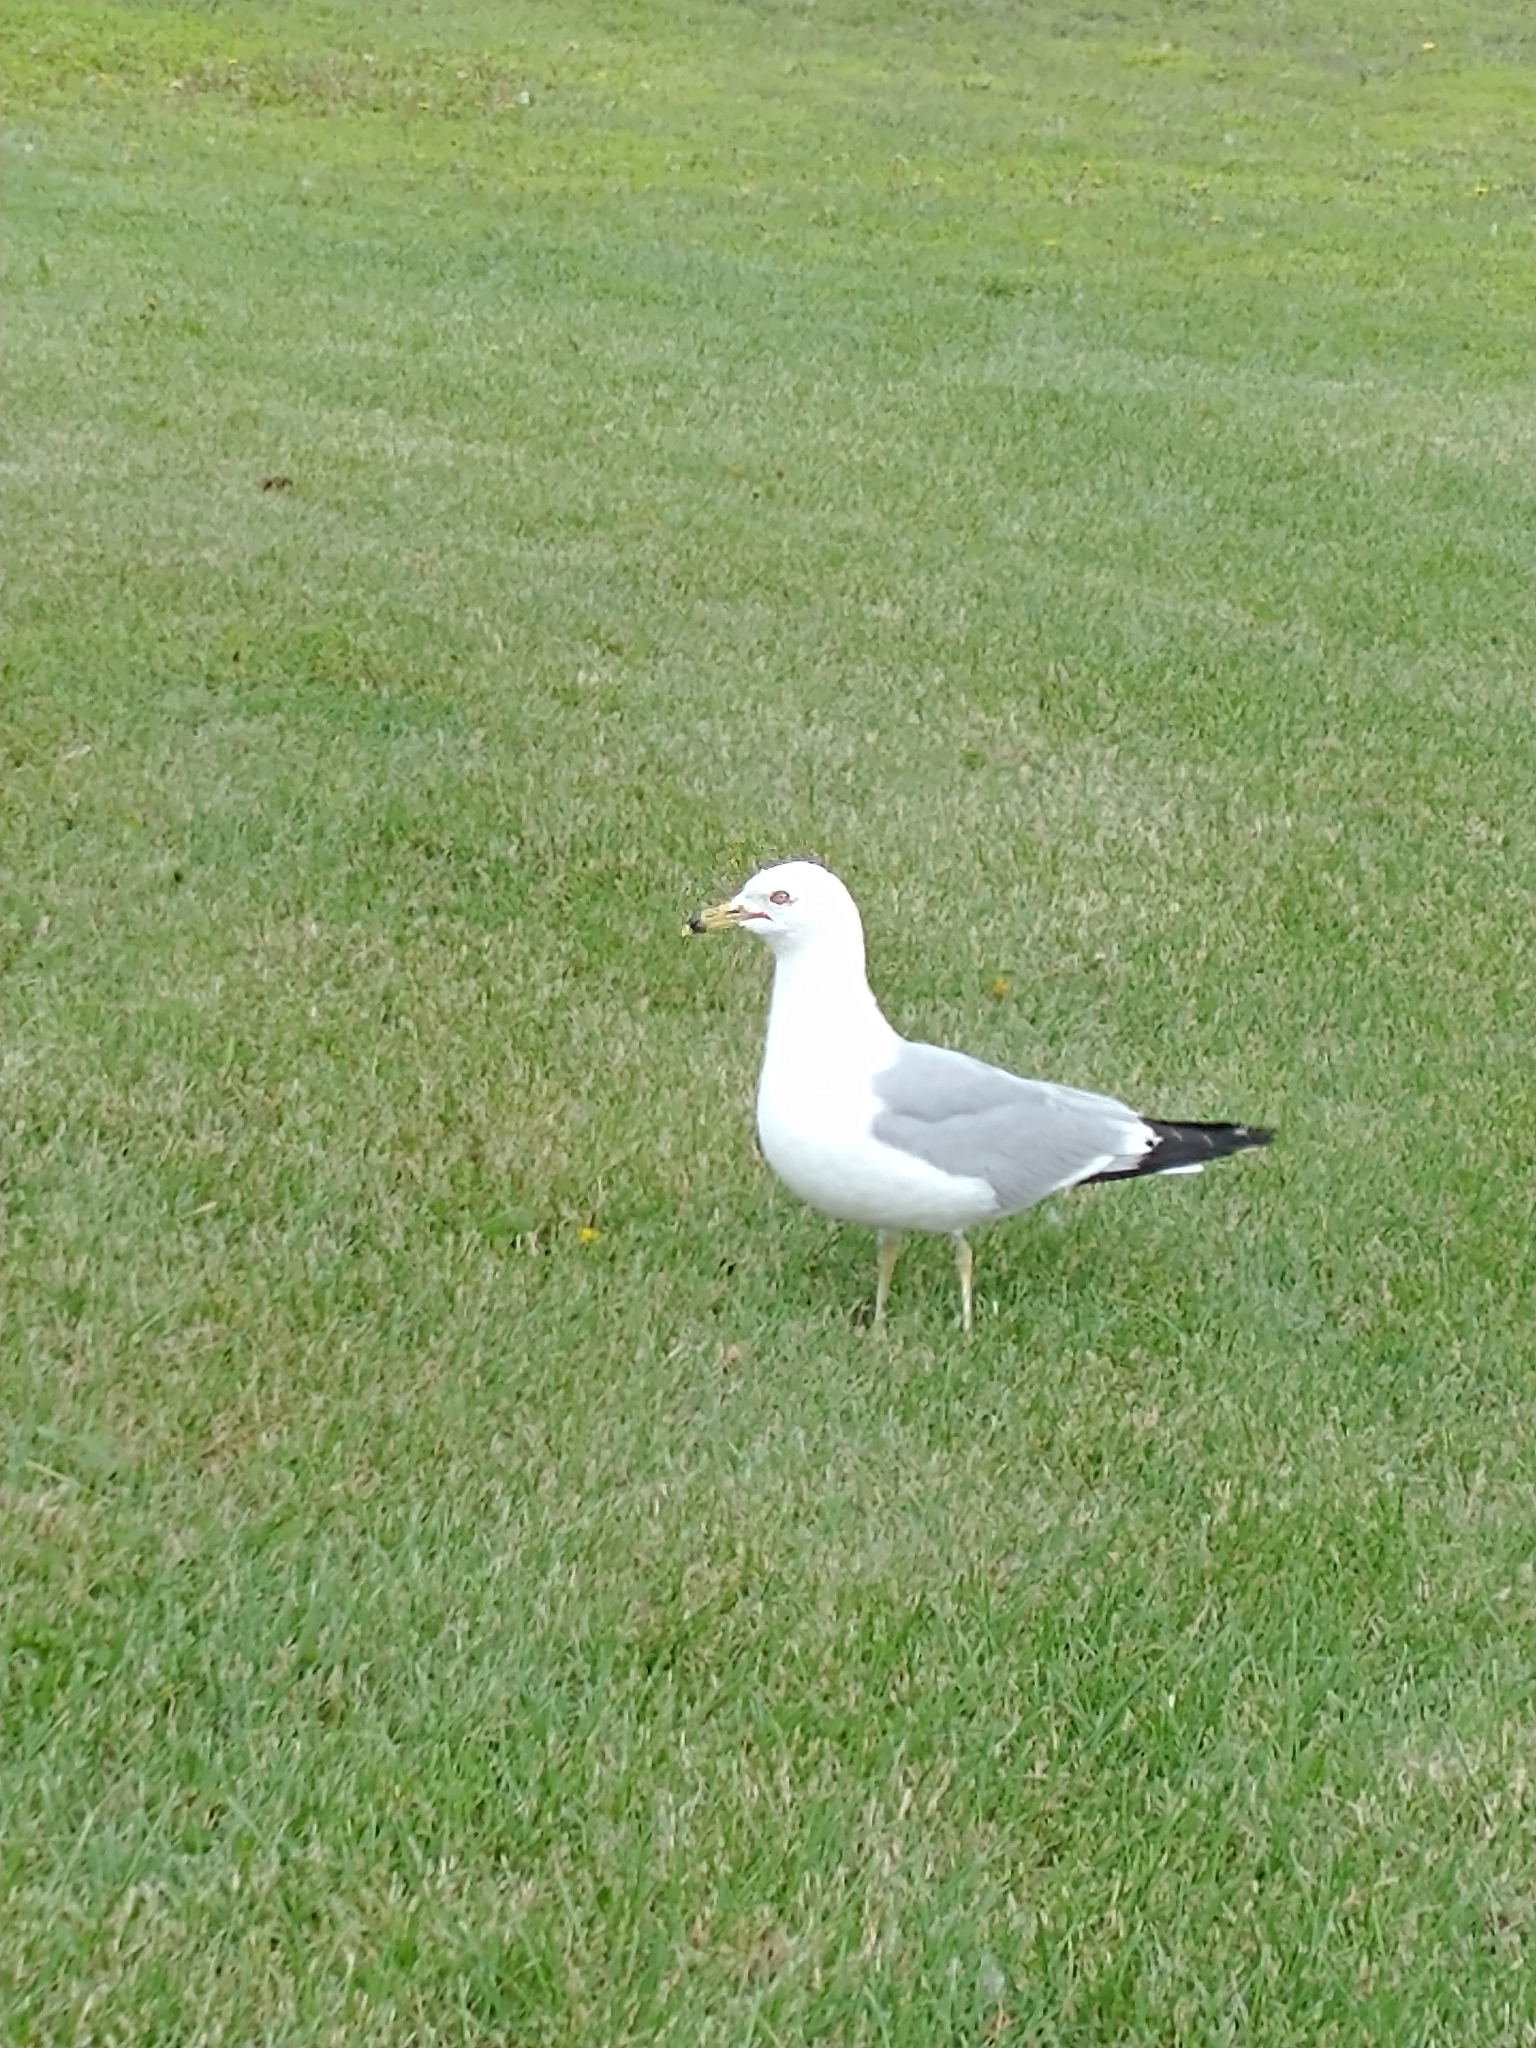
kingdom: Animalia
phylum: Chordata
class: Aves
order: Charadriiformes
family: Laridae
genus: Larus
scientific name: Larus delawarensis
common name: Ring-billed gull
